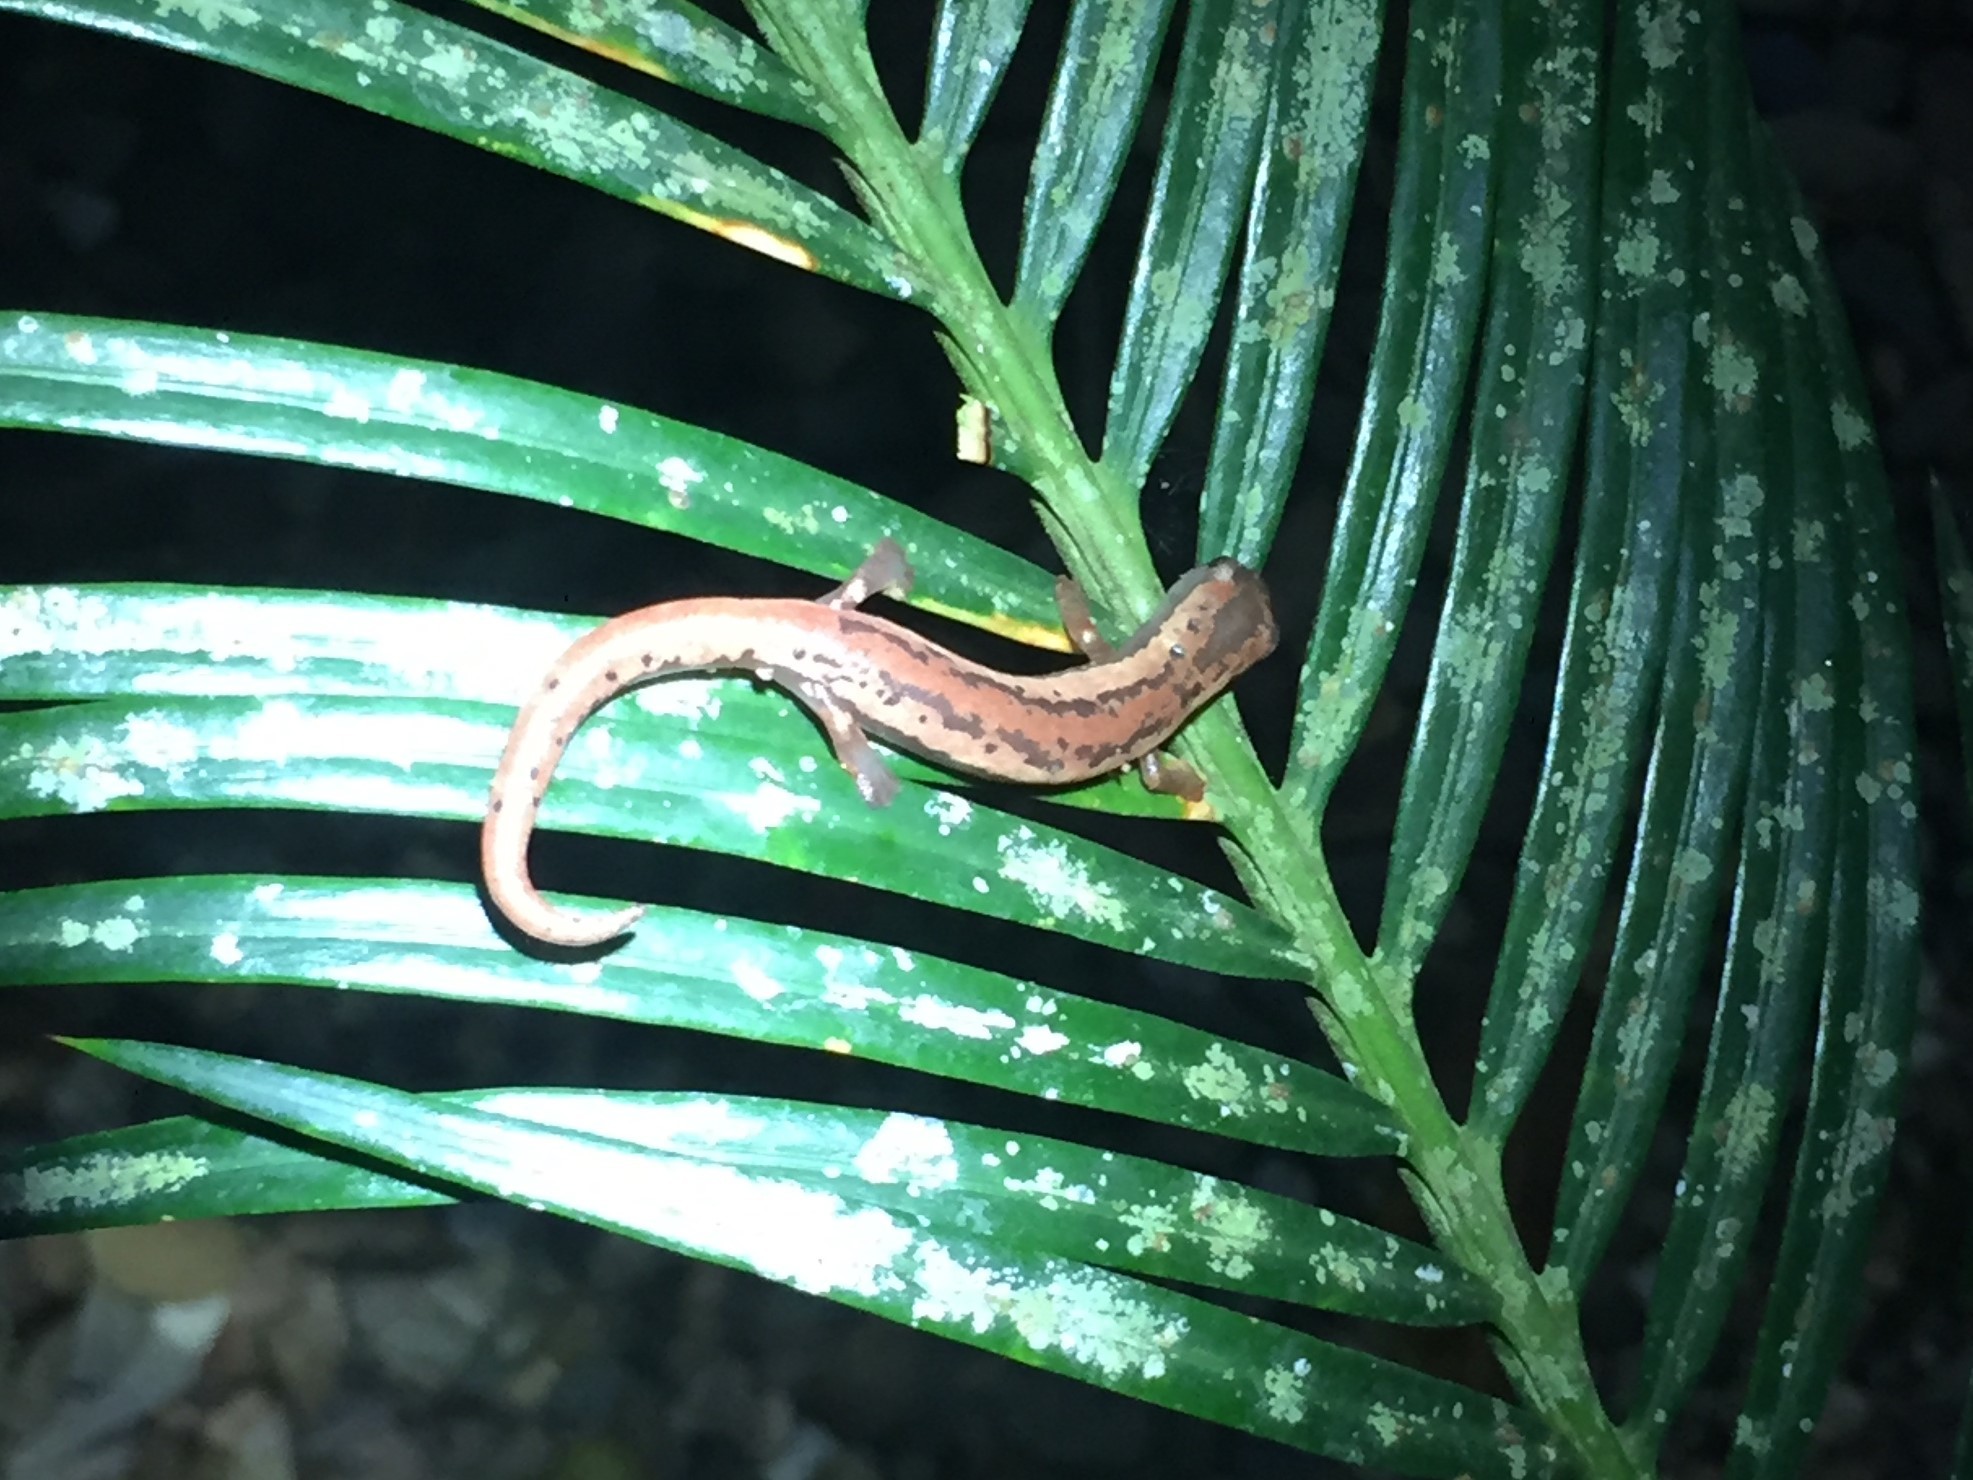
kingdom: Animalia
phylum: Chordata
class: Amphibia
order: Caudata
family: Plethodontidae
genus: Bolitoglossa
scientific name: Bolitoglossa mexicana
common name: Black-and-gold salamander
